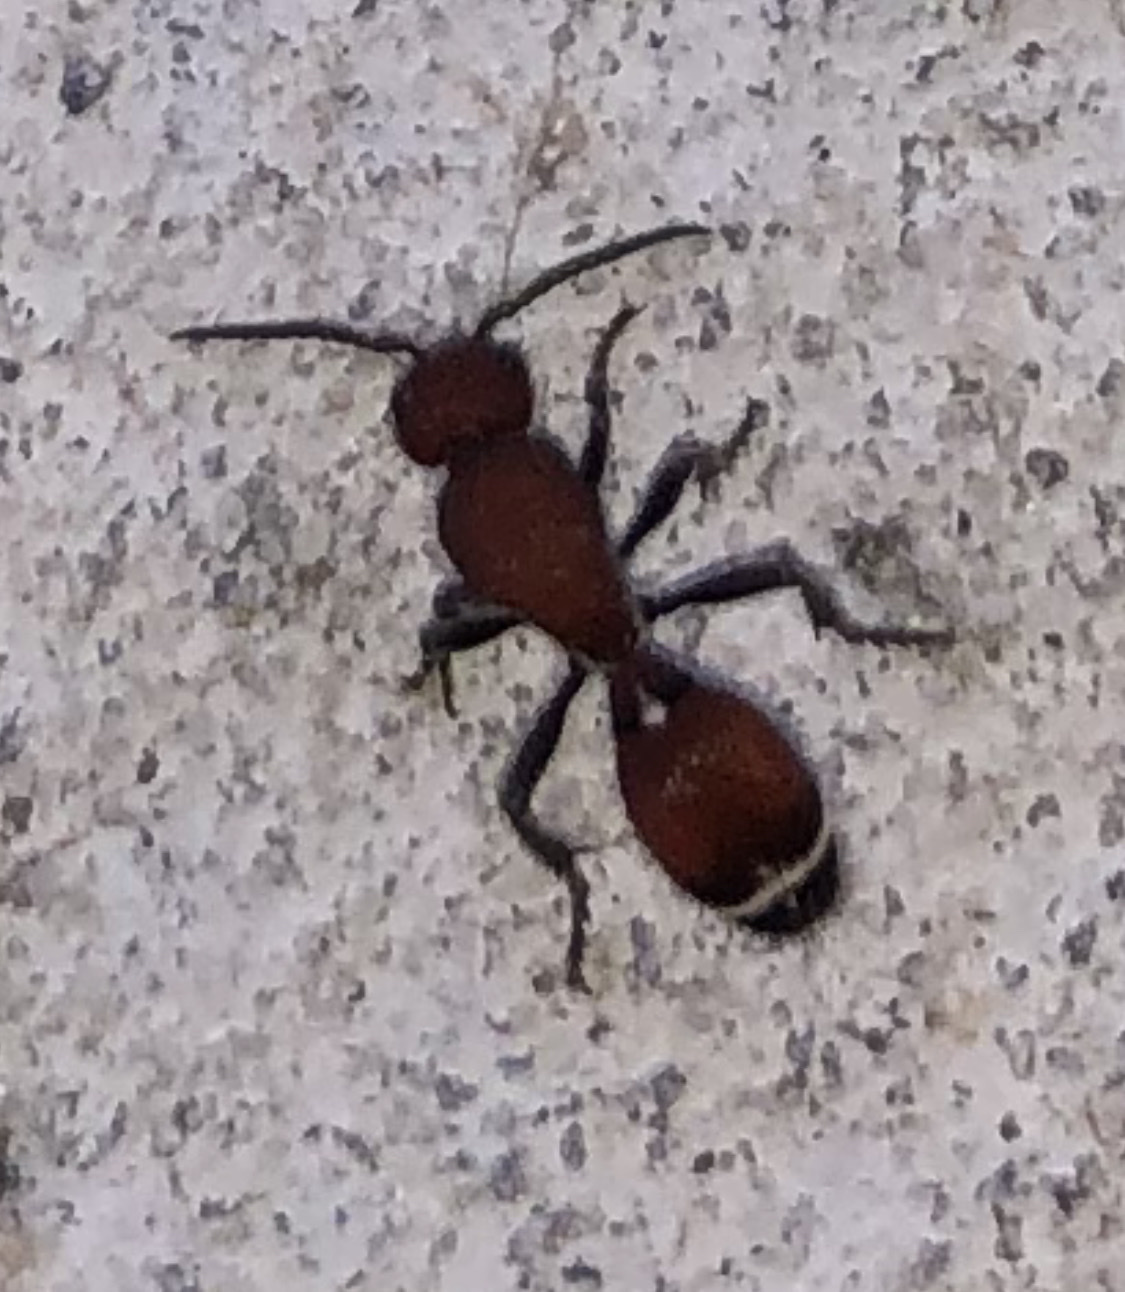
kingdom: Animalia
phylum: Arthropoda
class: Insecta
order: Hymenoptera
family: Mutillidae
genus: Sphaeropthalma
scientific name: Sphaeropthalma
